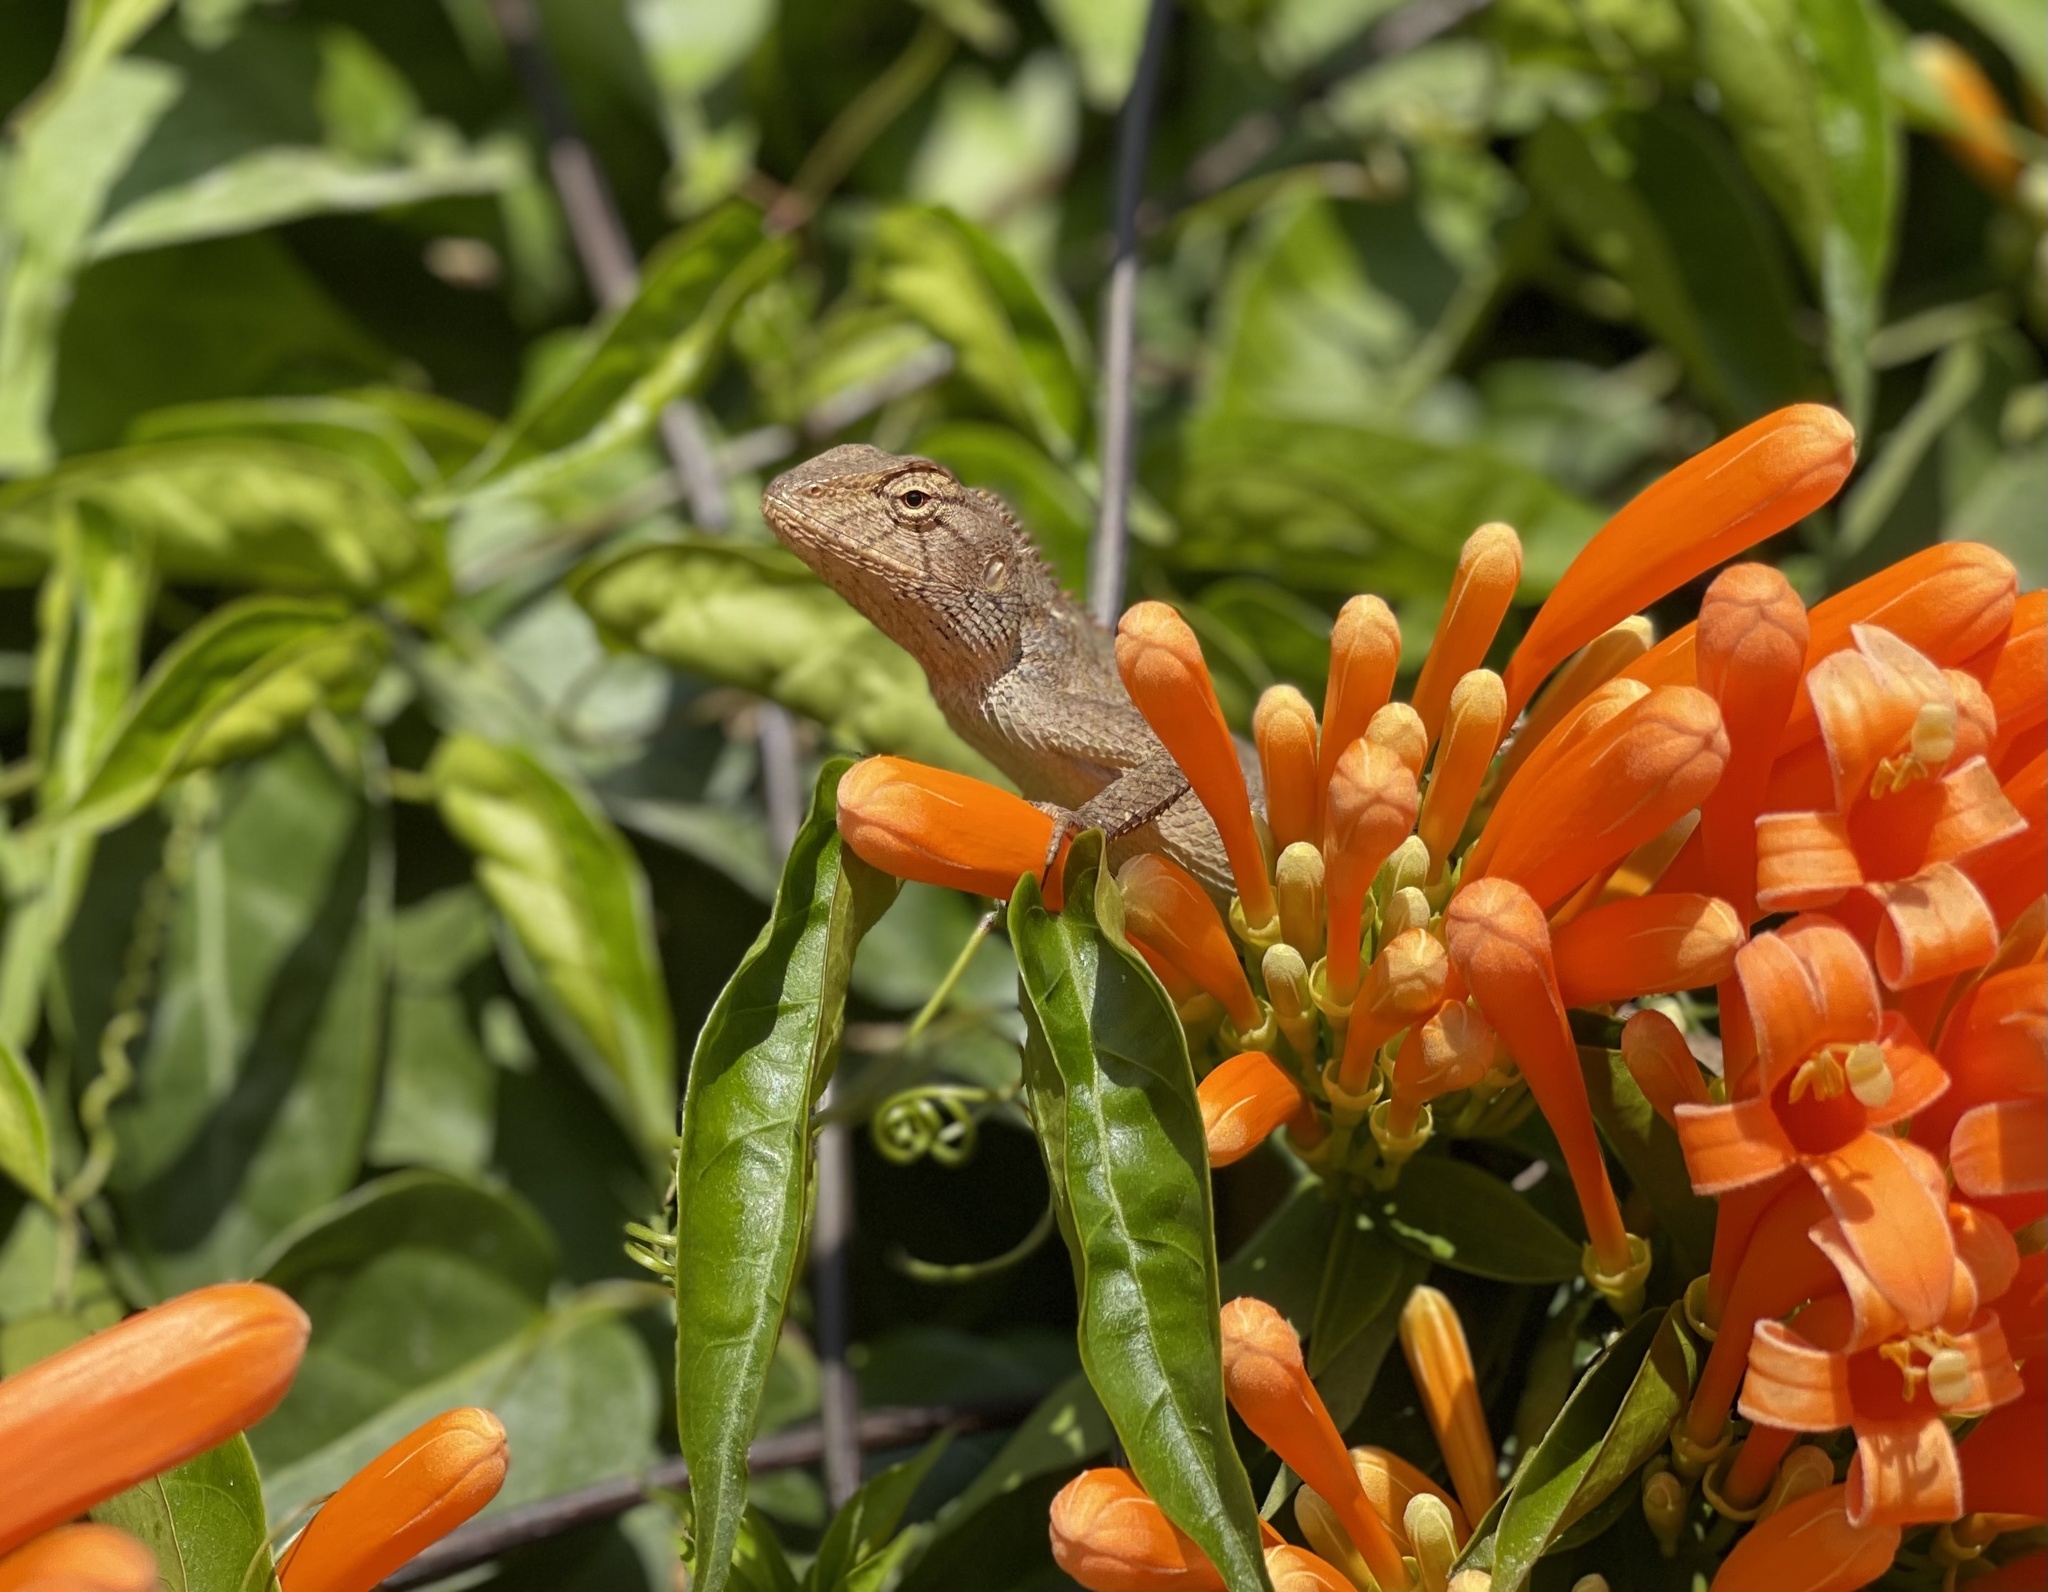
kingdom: Animalia
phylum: Chordata
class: Squamata
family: Agamidae
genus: Calotes
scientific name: Calotes versicolor
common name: Oriental garden lizard
